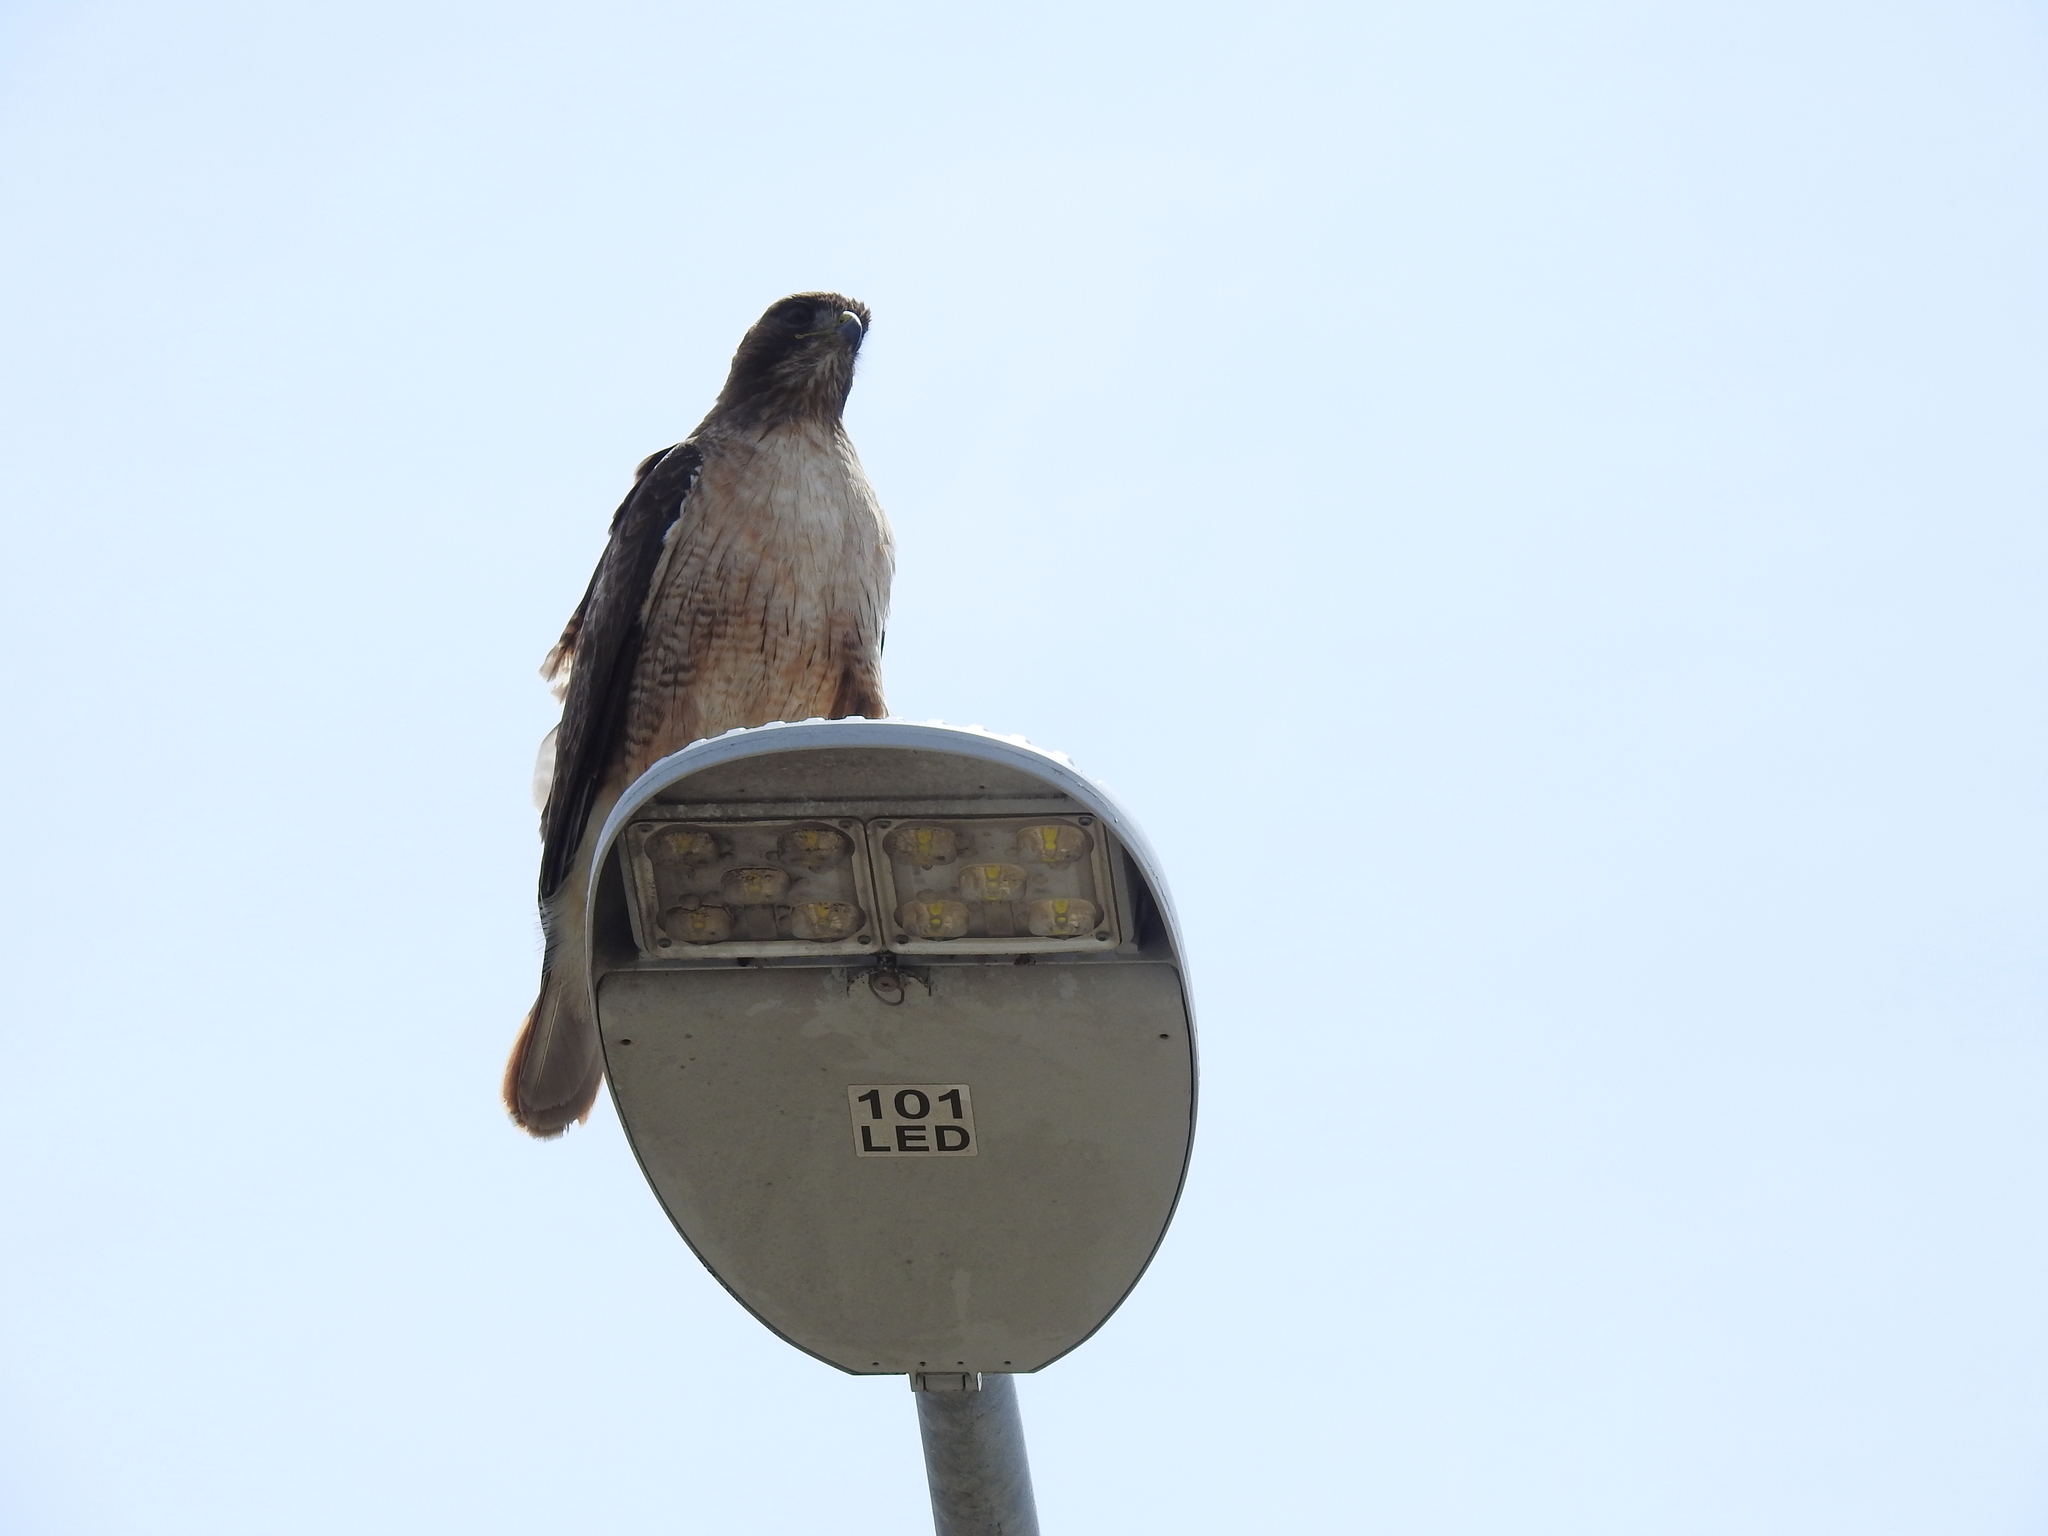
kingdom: Animalia
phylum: Chordata
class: Aves
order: Accipitriformes
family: Accipitridae
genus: Buteo
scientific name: Buteo lineatus
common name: Red-shouldered hawk
